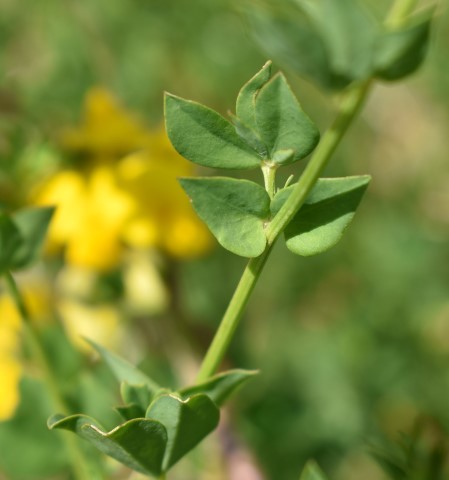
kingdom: Plantae
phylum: Tracheophyta
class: Magnoliopsida
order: Fabales
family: Fabaceae
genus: Lotus
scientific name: Lotus corniculatus
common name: Common bird's-foot-trefoil
